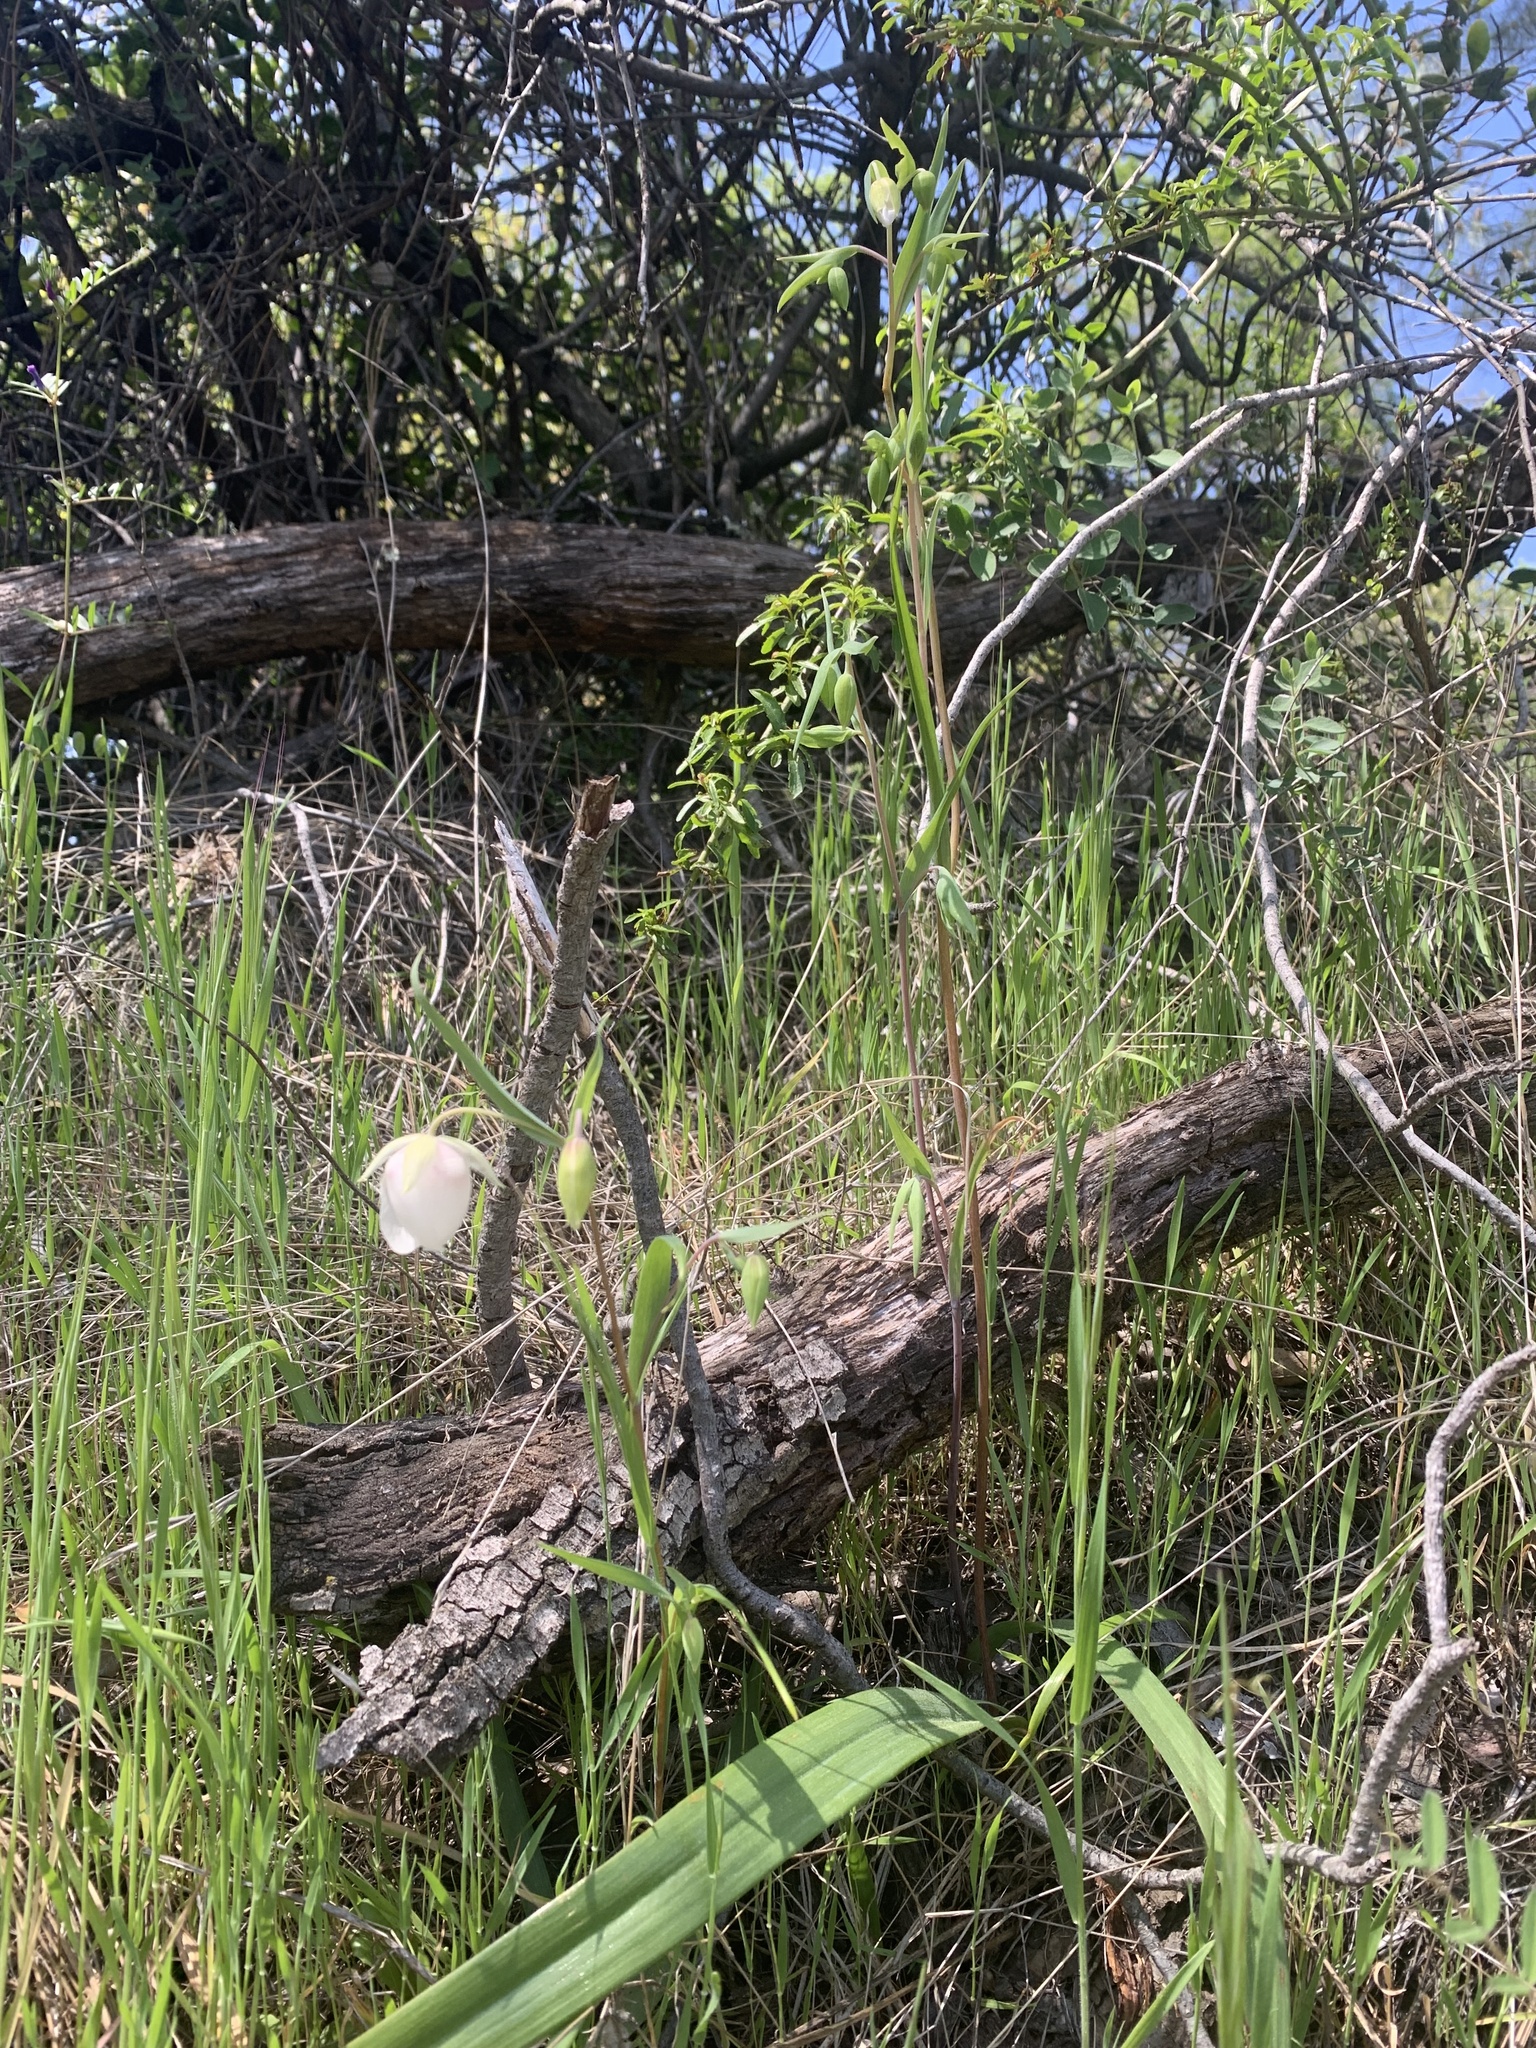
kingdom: Plantae
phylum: Tracheophyta
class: Liliopsida
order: Liliales
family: Liliaceae
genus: Calochortus
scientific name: Calochortus albus
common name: Fairy-lantern
